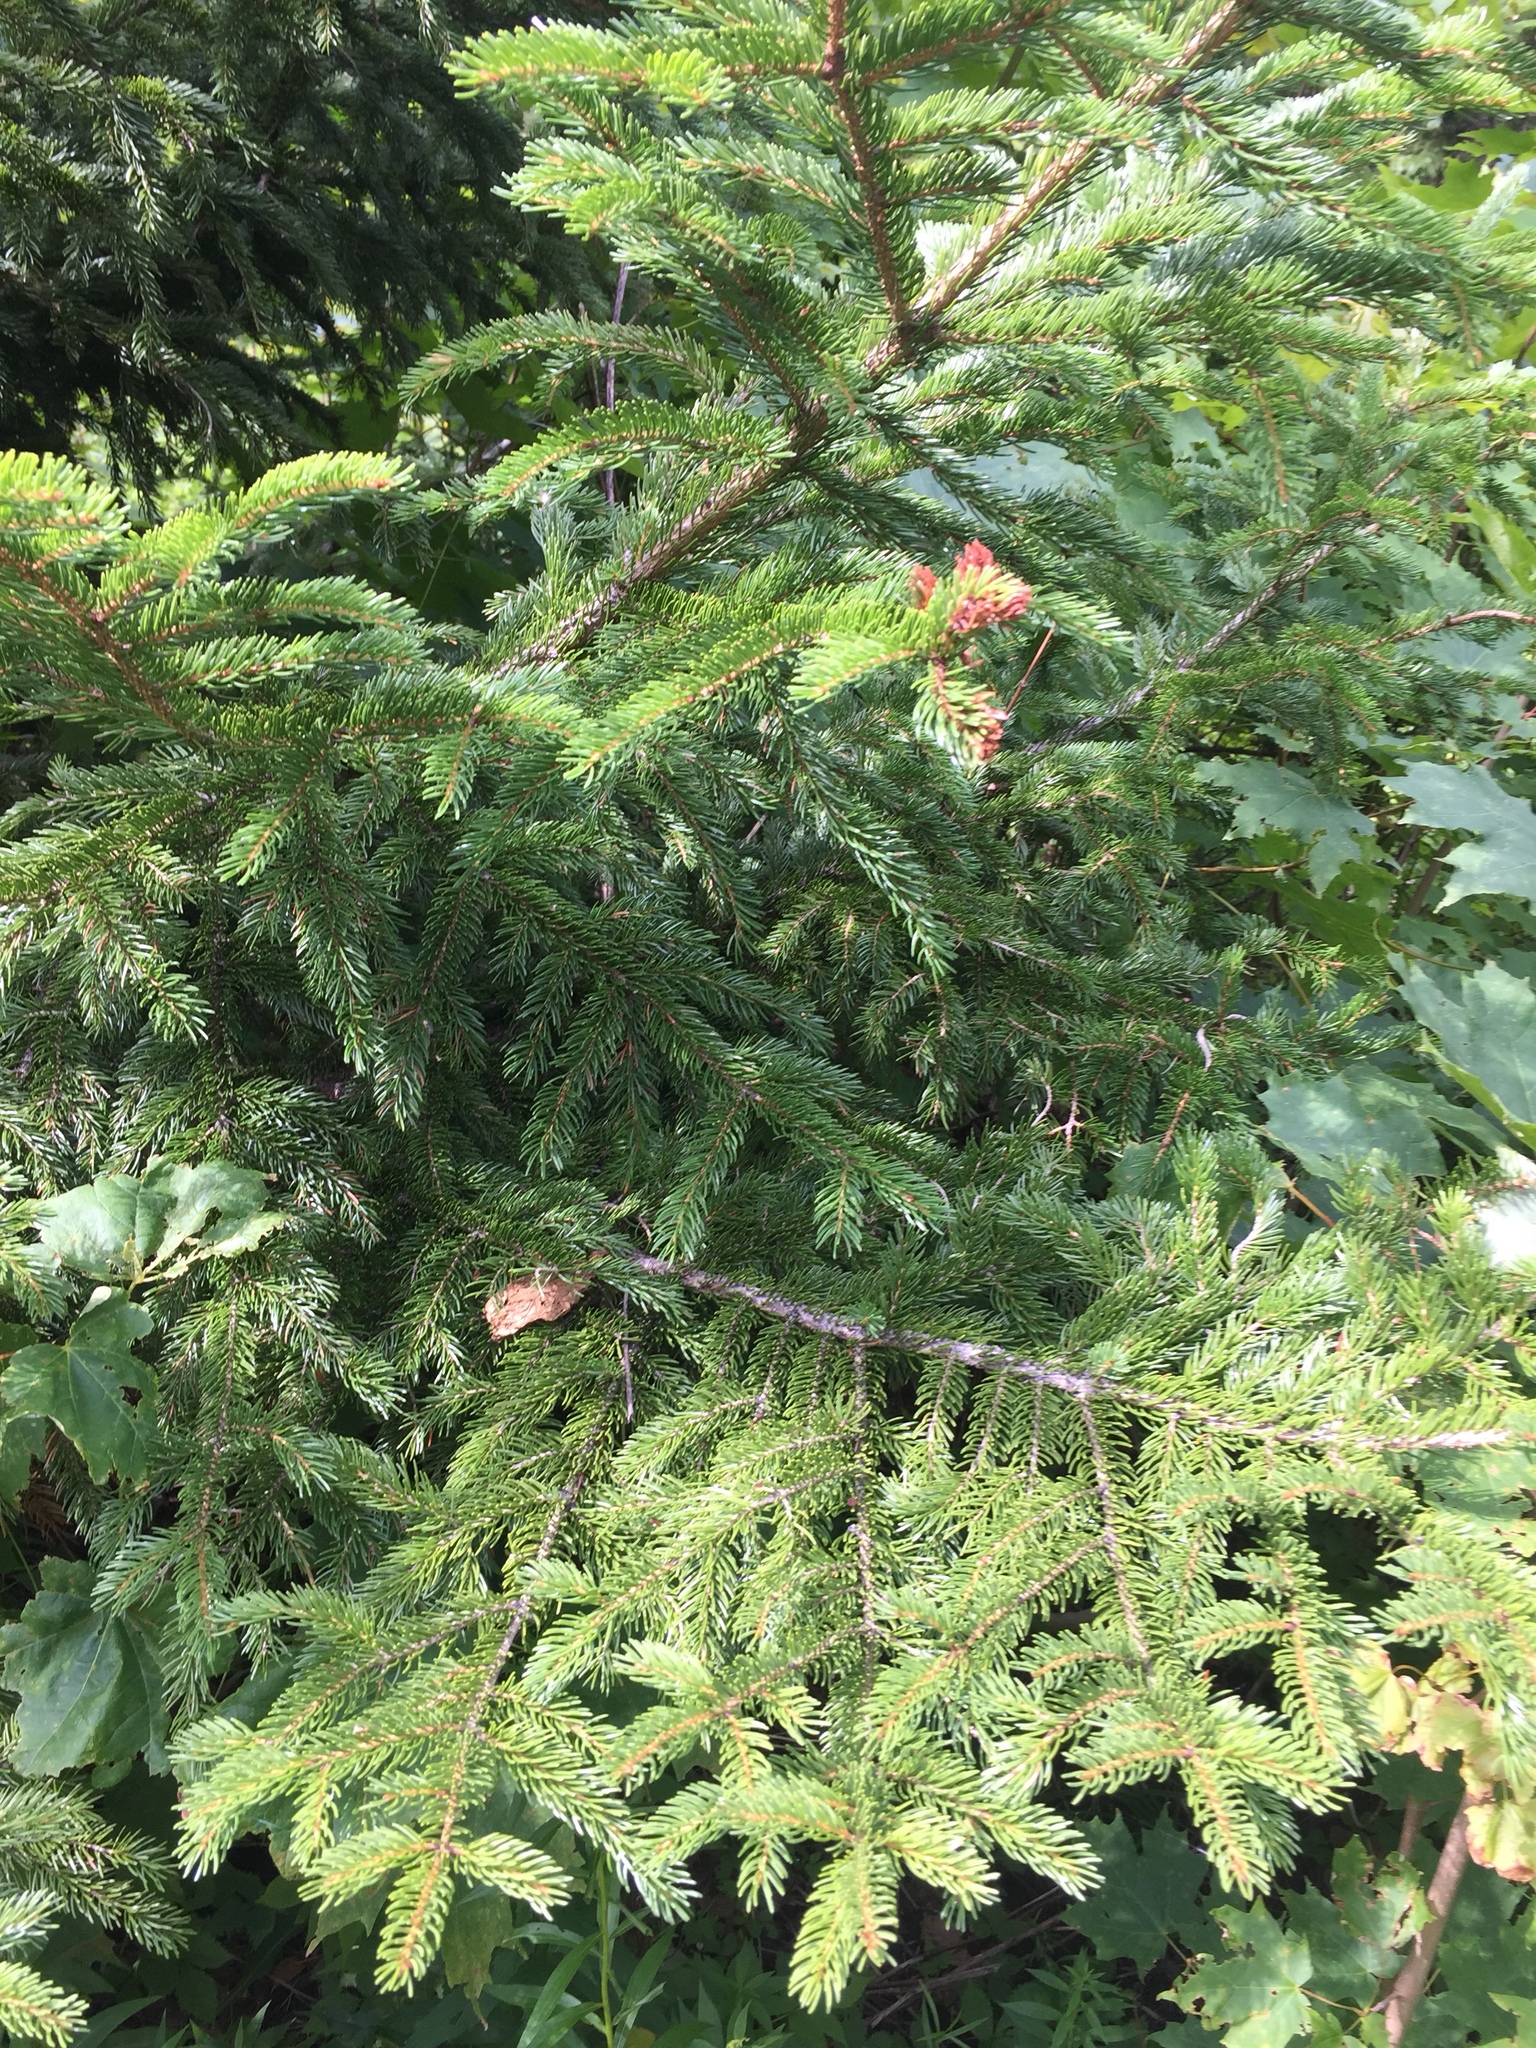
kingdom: Plantae
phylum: Tracheophyta
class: Pinopsida
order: Pinales
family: Pinaceae
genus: Picea
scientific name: Picea rubens
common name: Red spruce
